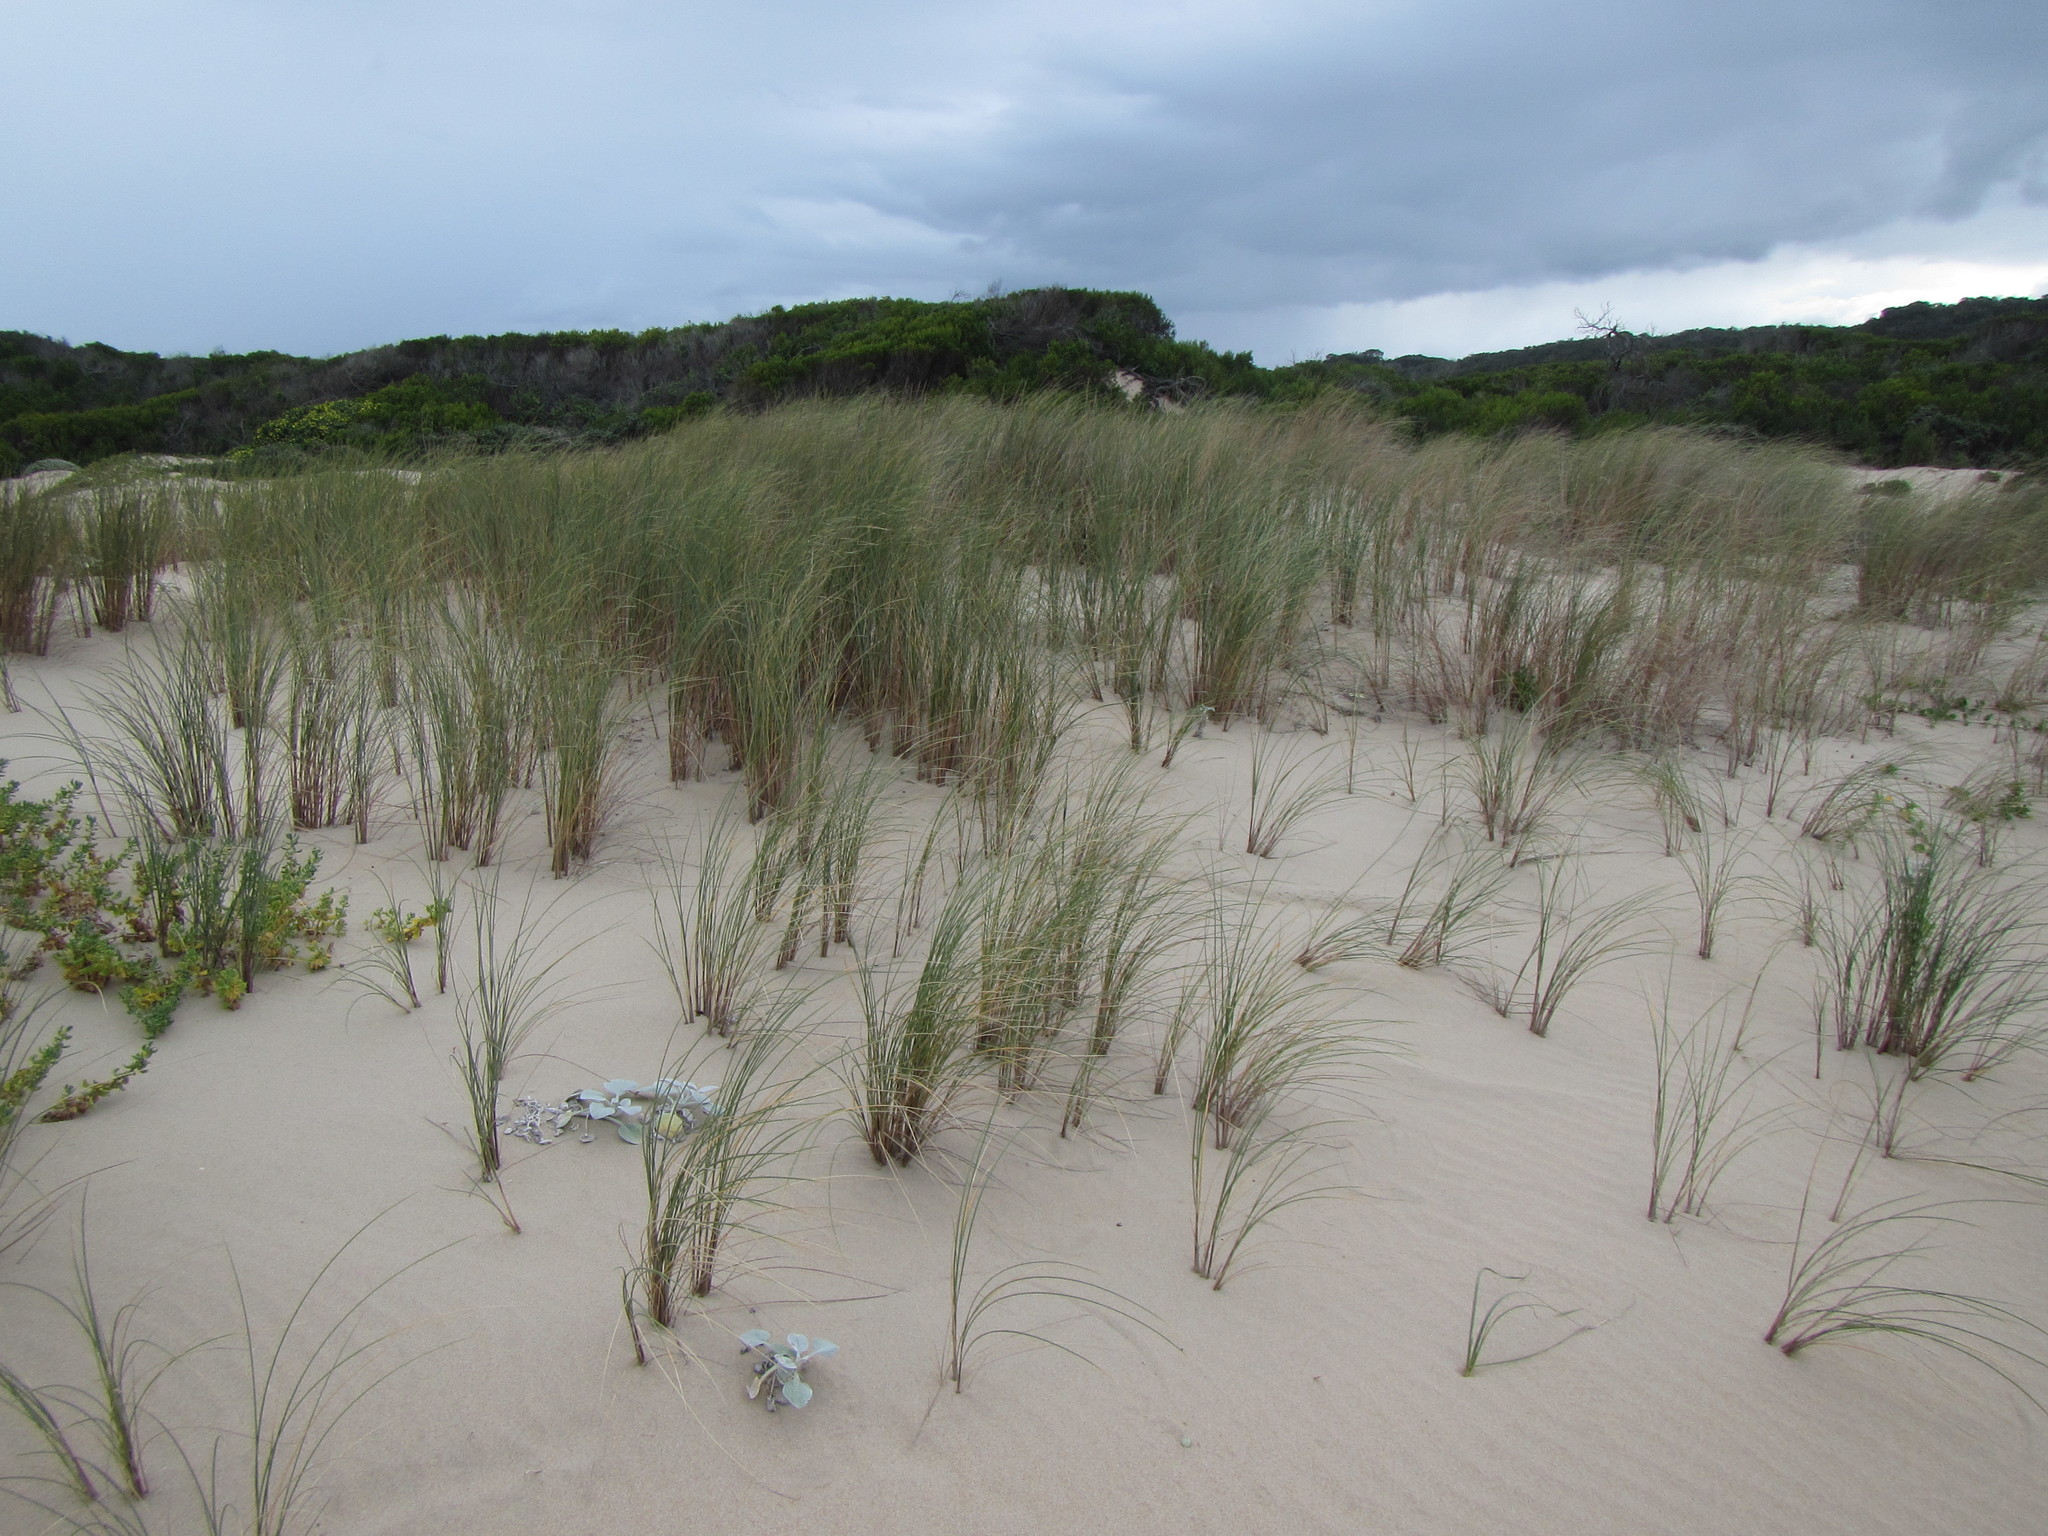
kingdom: Plantae
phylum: Tracheophyta
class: Liliopsida
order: Poales
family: Poaceae
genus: Thinopyrum
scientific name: Thinopyrum distichum
